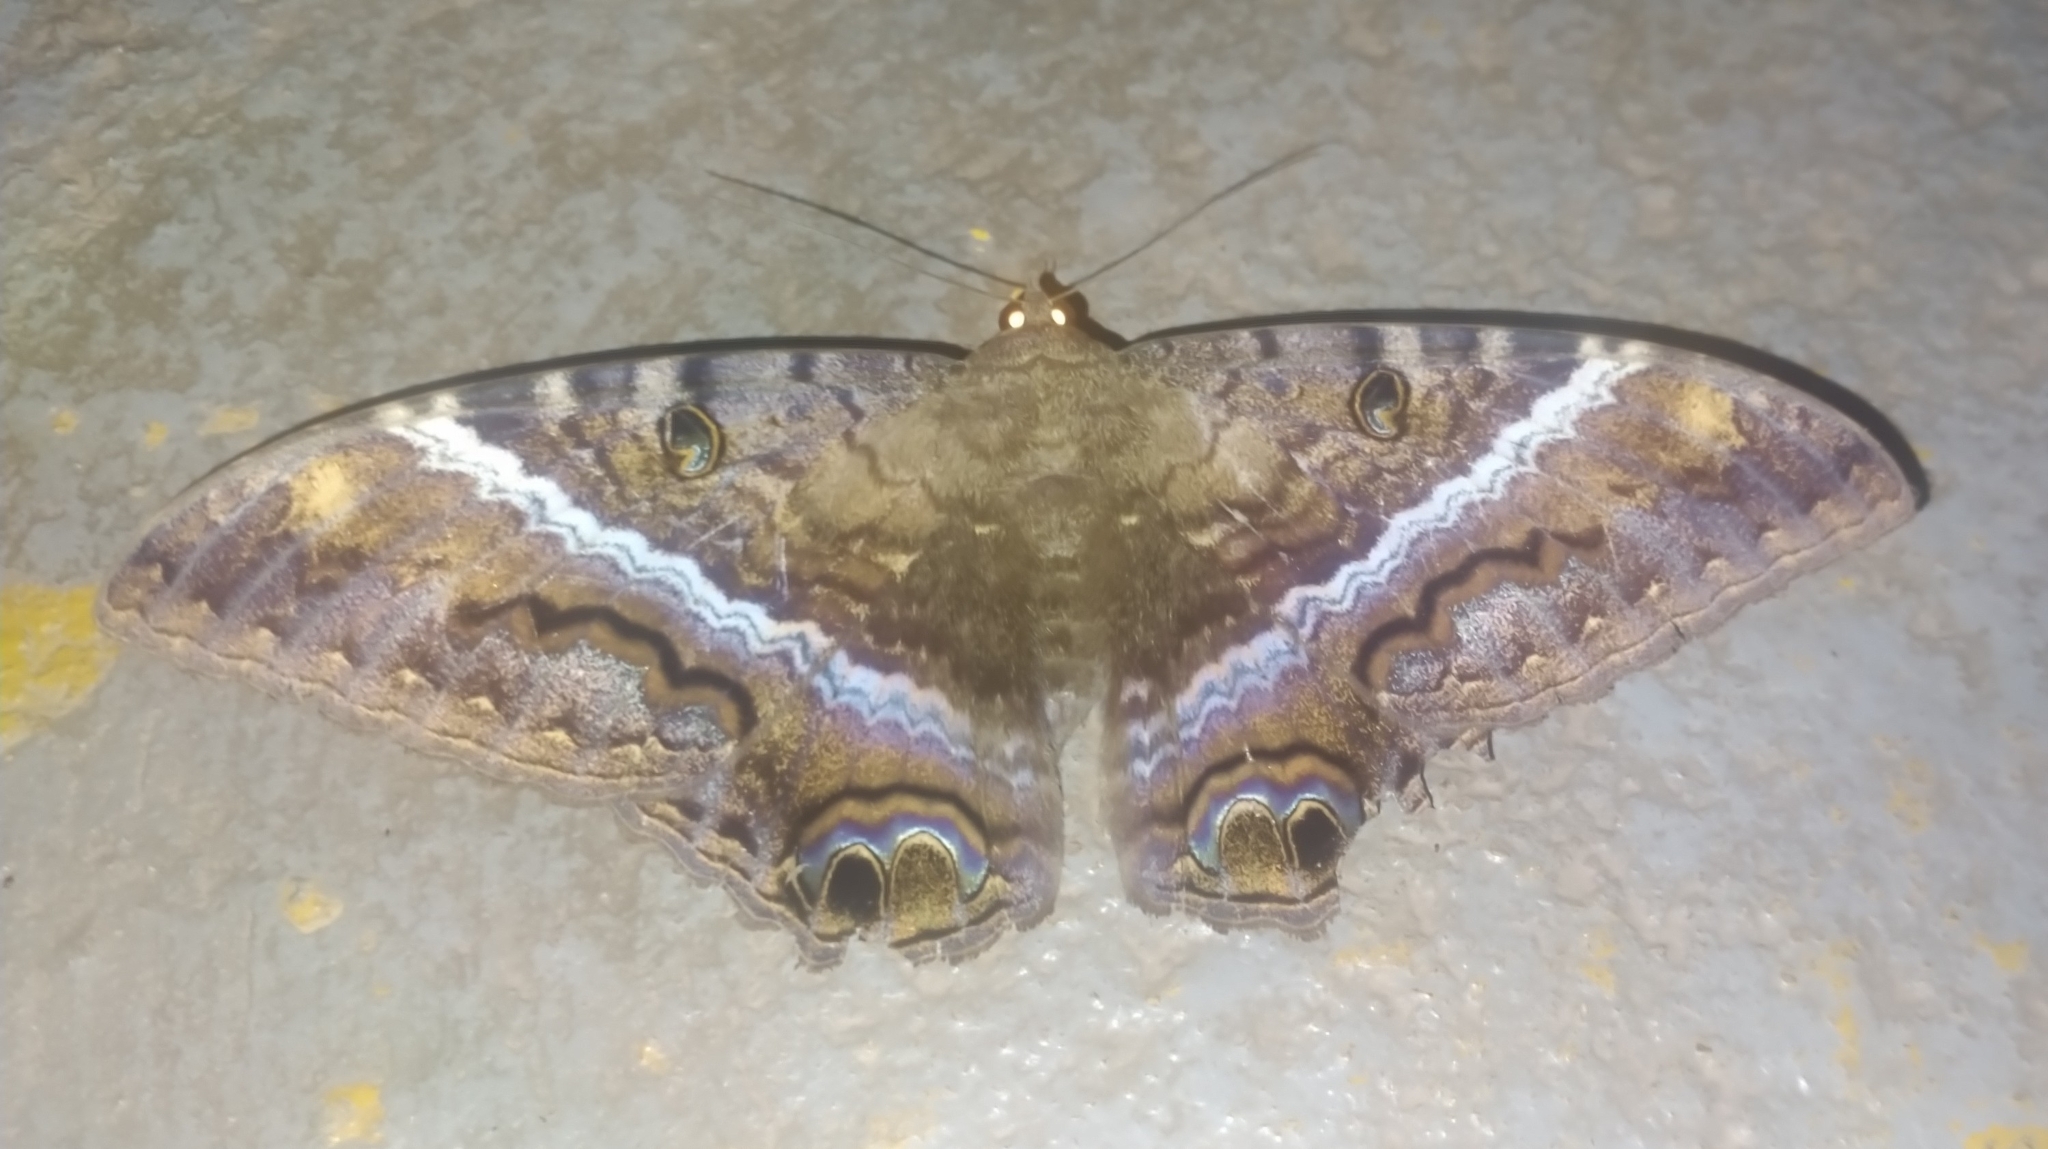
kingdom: Animalia
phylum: Arthropoda
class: Insecta
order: Lepidoptera
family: Erebidae
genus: Ascalapha
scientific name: Ascalapha odorata
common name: Black witch
